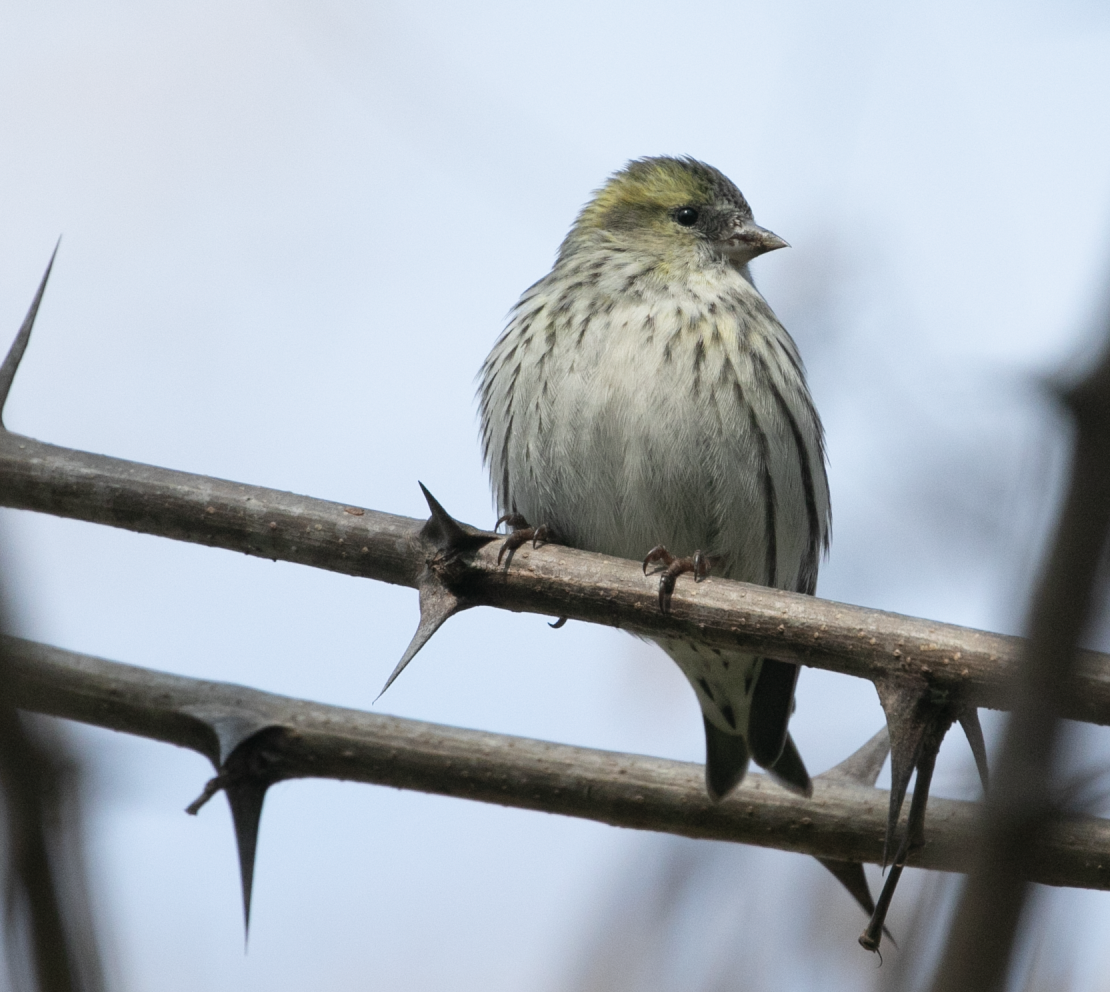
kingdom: Animalia
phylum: Chordata
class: Aves
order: Passeriformes
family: Fringillidae
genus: Spinus
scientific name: Spinus spinus
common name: Eurasian siskin
